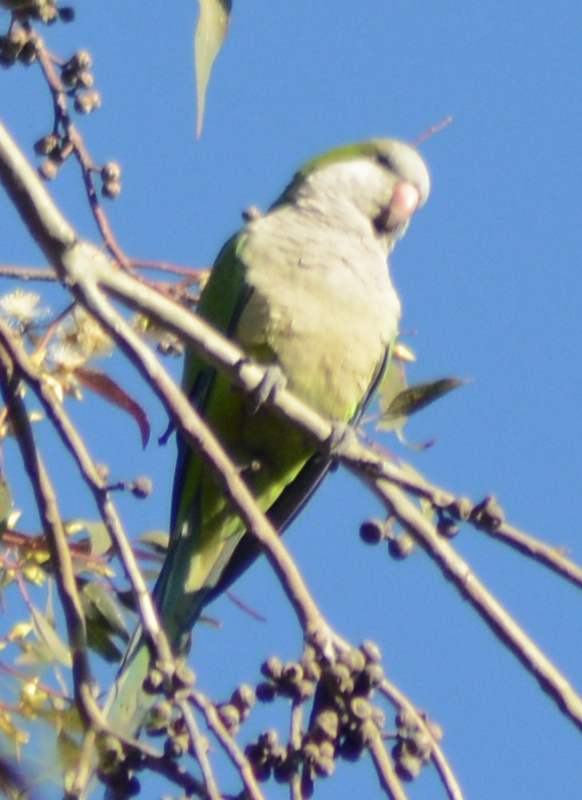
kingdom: Animalia
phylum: Chordata
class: Aves
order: Psittaciformes
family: Psittacidae
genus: Myiopsitta
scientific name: Myiopsitta monachus
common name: Monk parakeet
